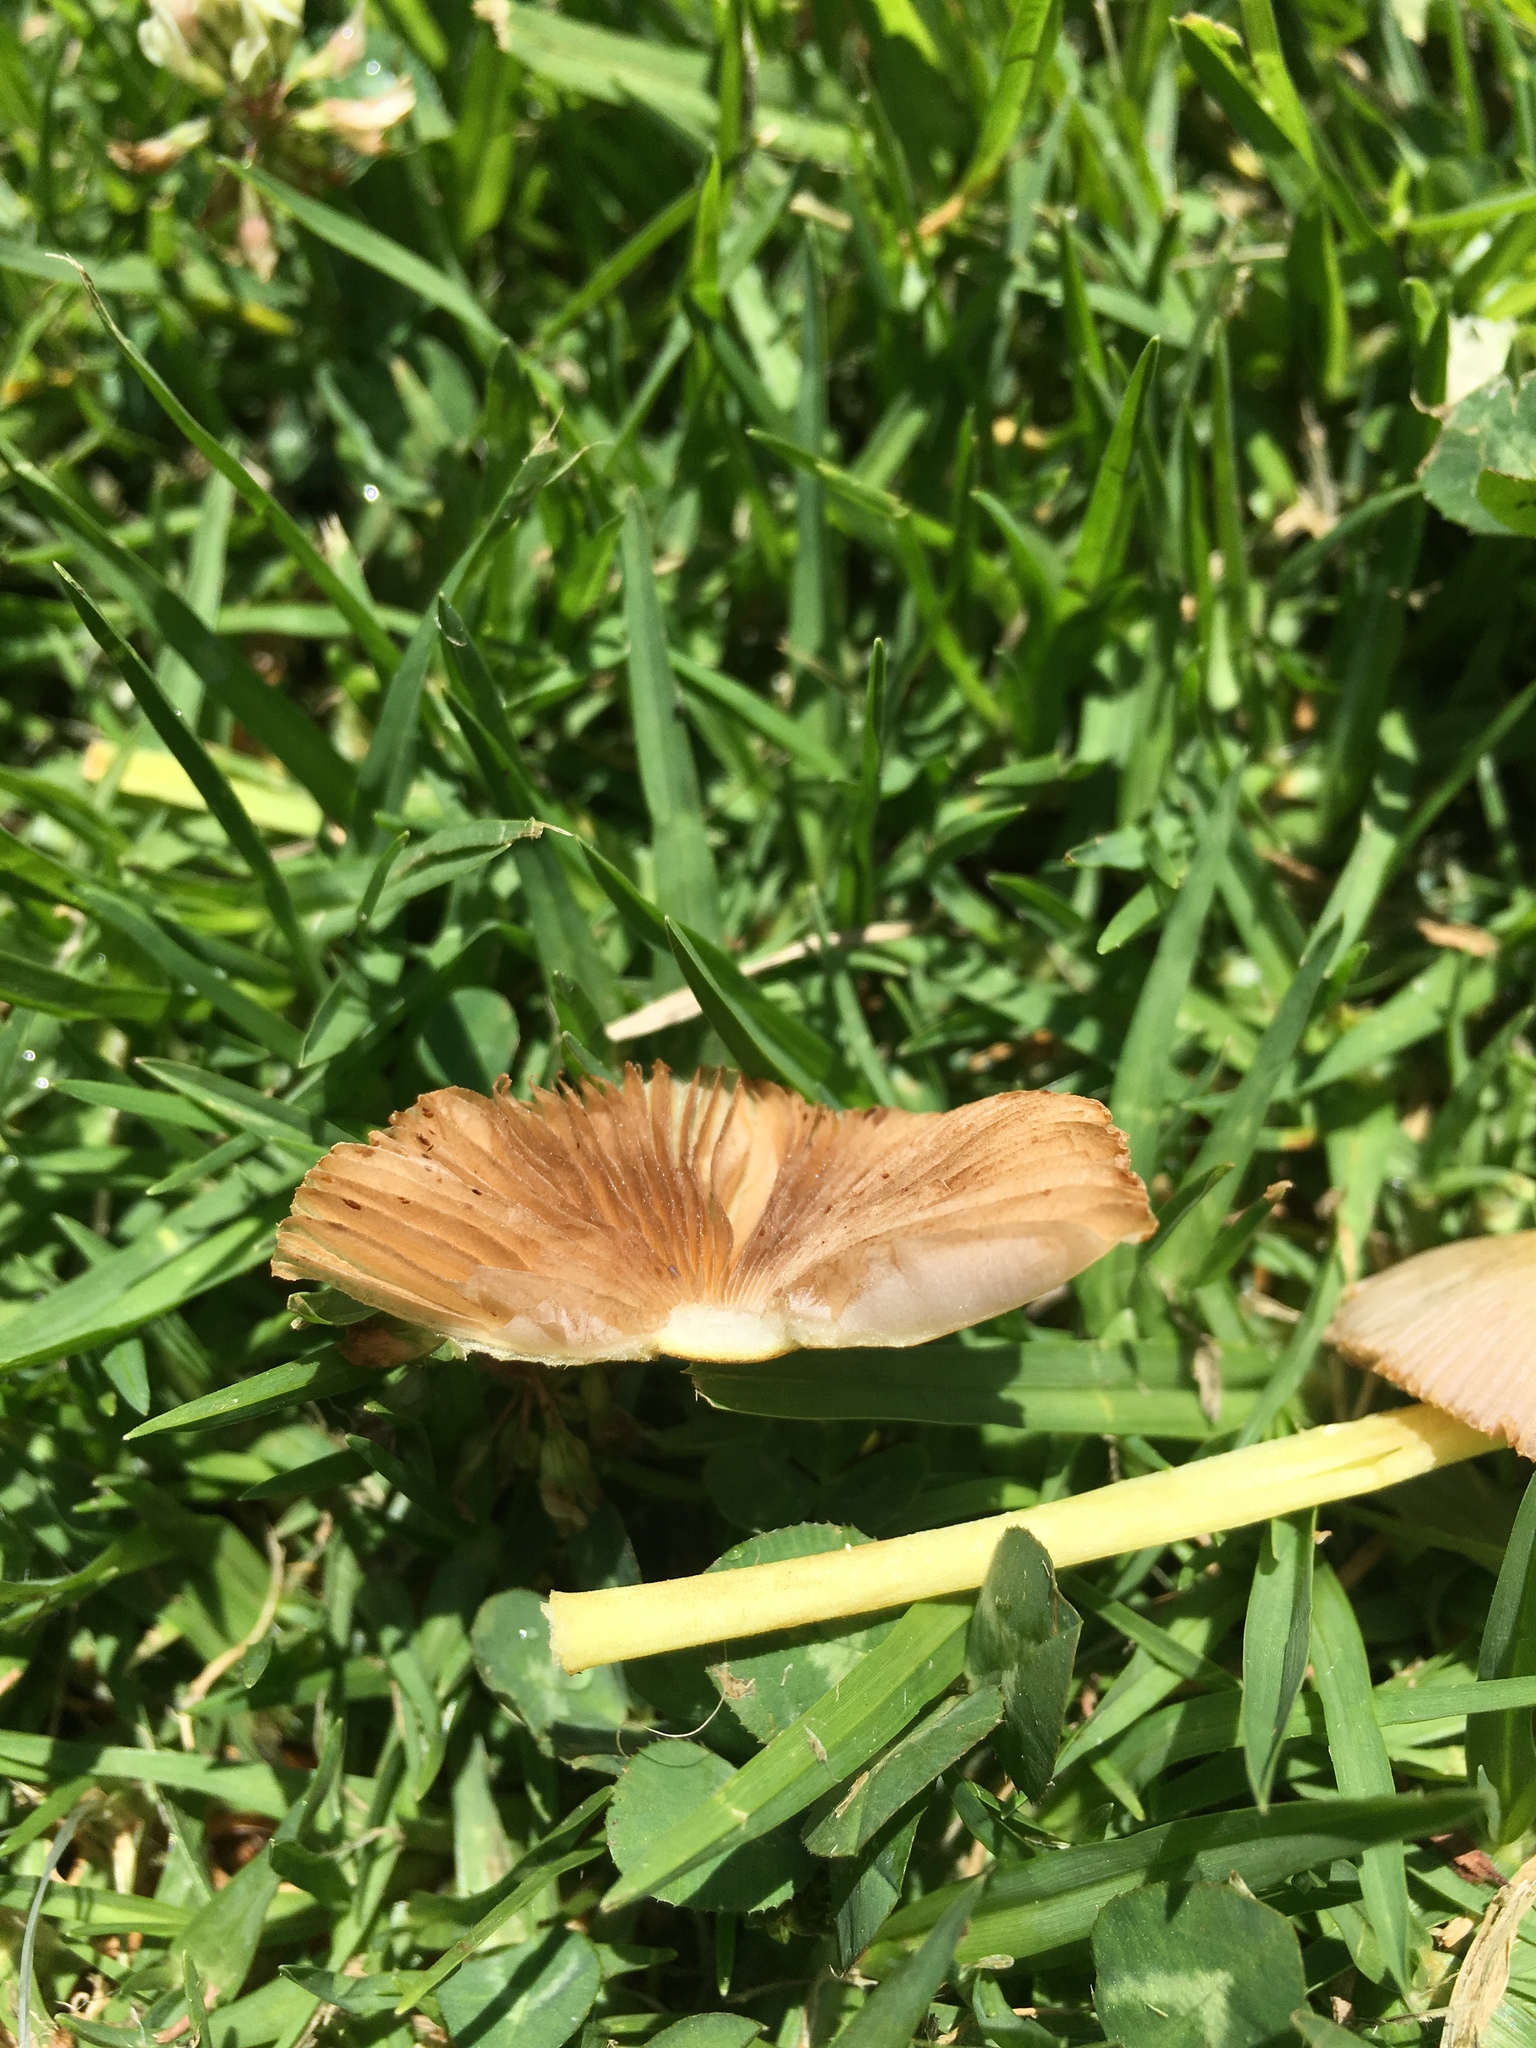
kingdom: Fungi
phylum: Basidiomycota
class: Agaricomycetes
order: Agaricales
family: Bolbitiaceae
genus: Bolbitius
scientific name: Bolbitius titubans
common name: Yellow fieldcap
